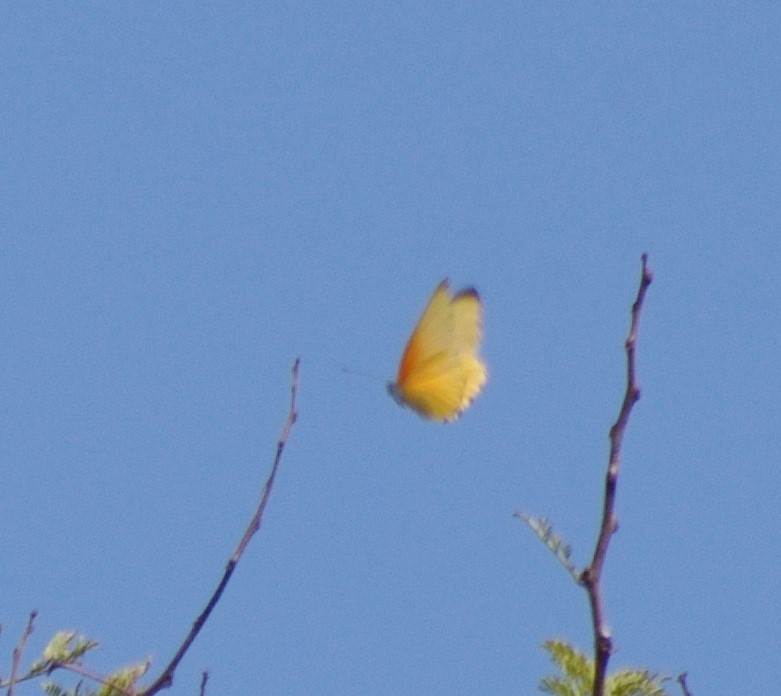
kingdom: Animalia
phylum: Arthropoda
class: Insecta
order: Lepidoptera
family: Pieridae
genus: Mylothris
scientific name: Mylothris agathina
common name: Eastern dotted border
